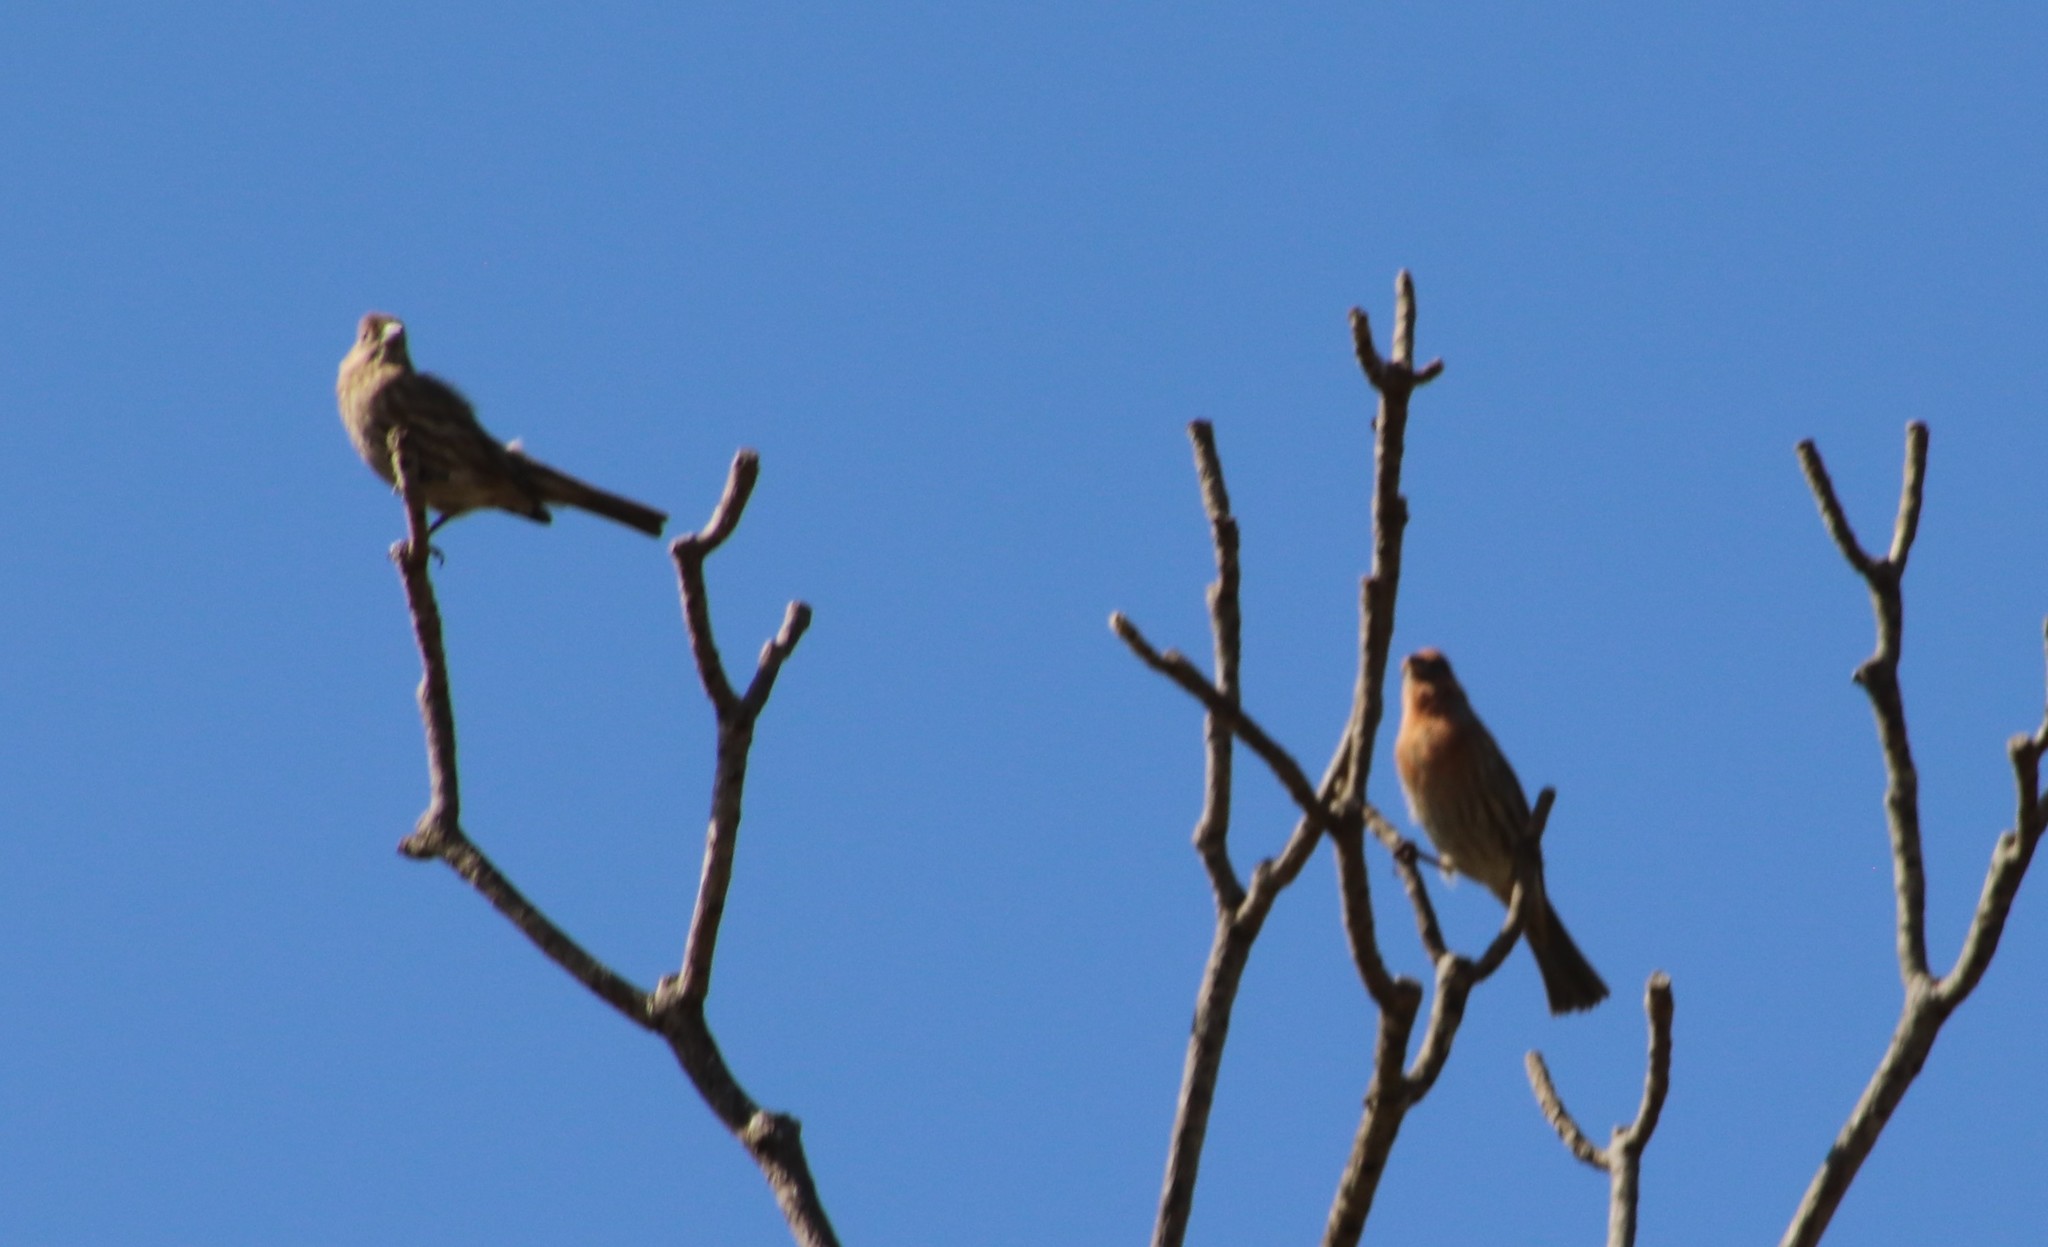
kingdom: Animalia
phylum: Chordata
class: Aves
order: Passeriformes
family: Fringillidae
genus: Haemorhous
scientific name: Haemorhous mexicanus
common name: House finch
